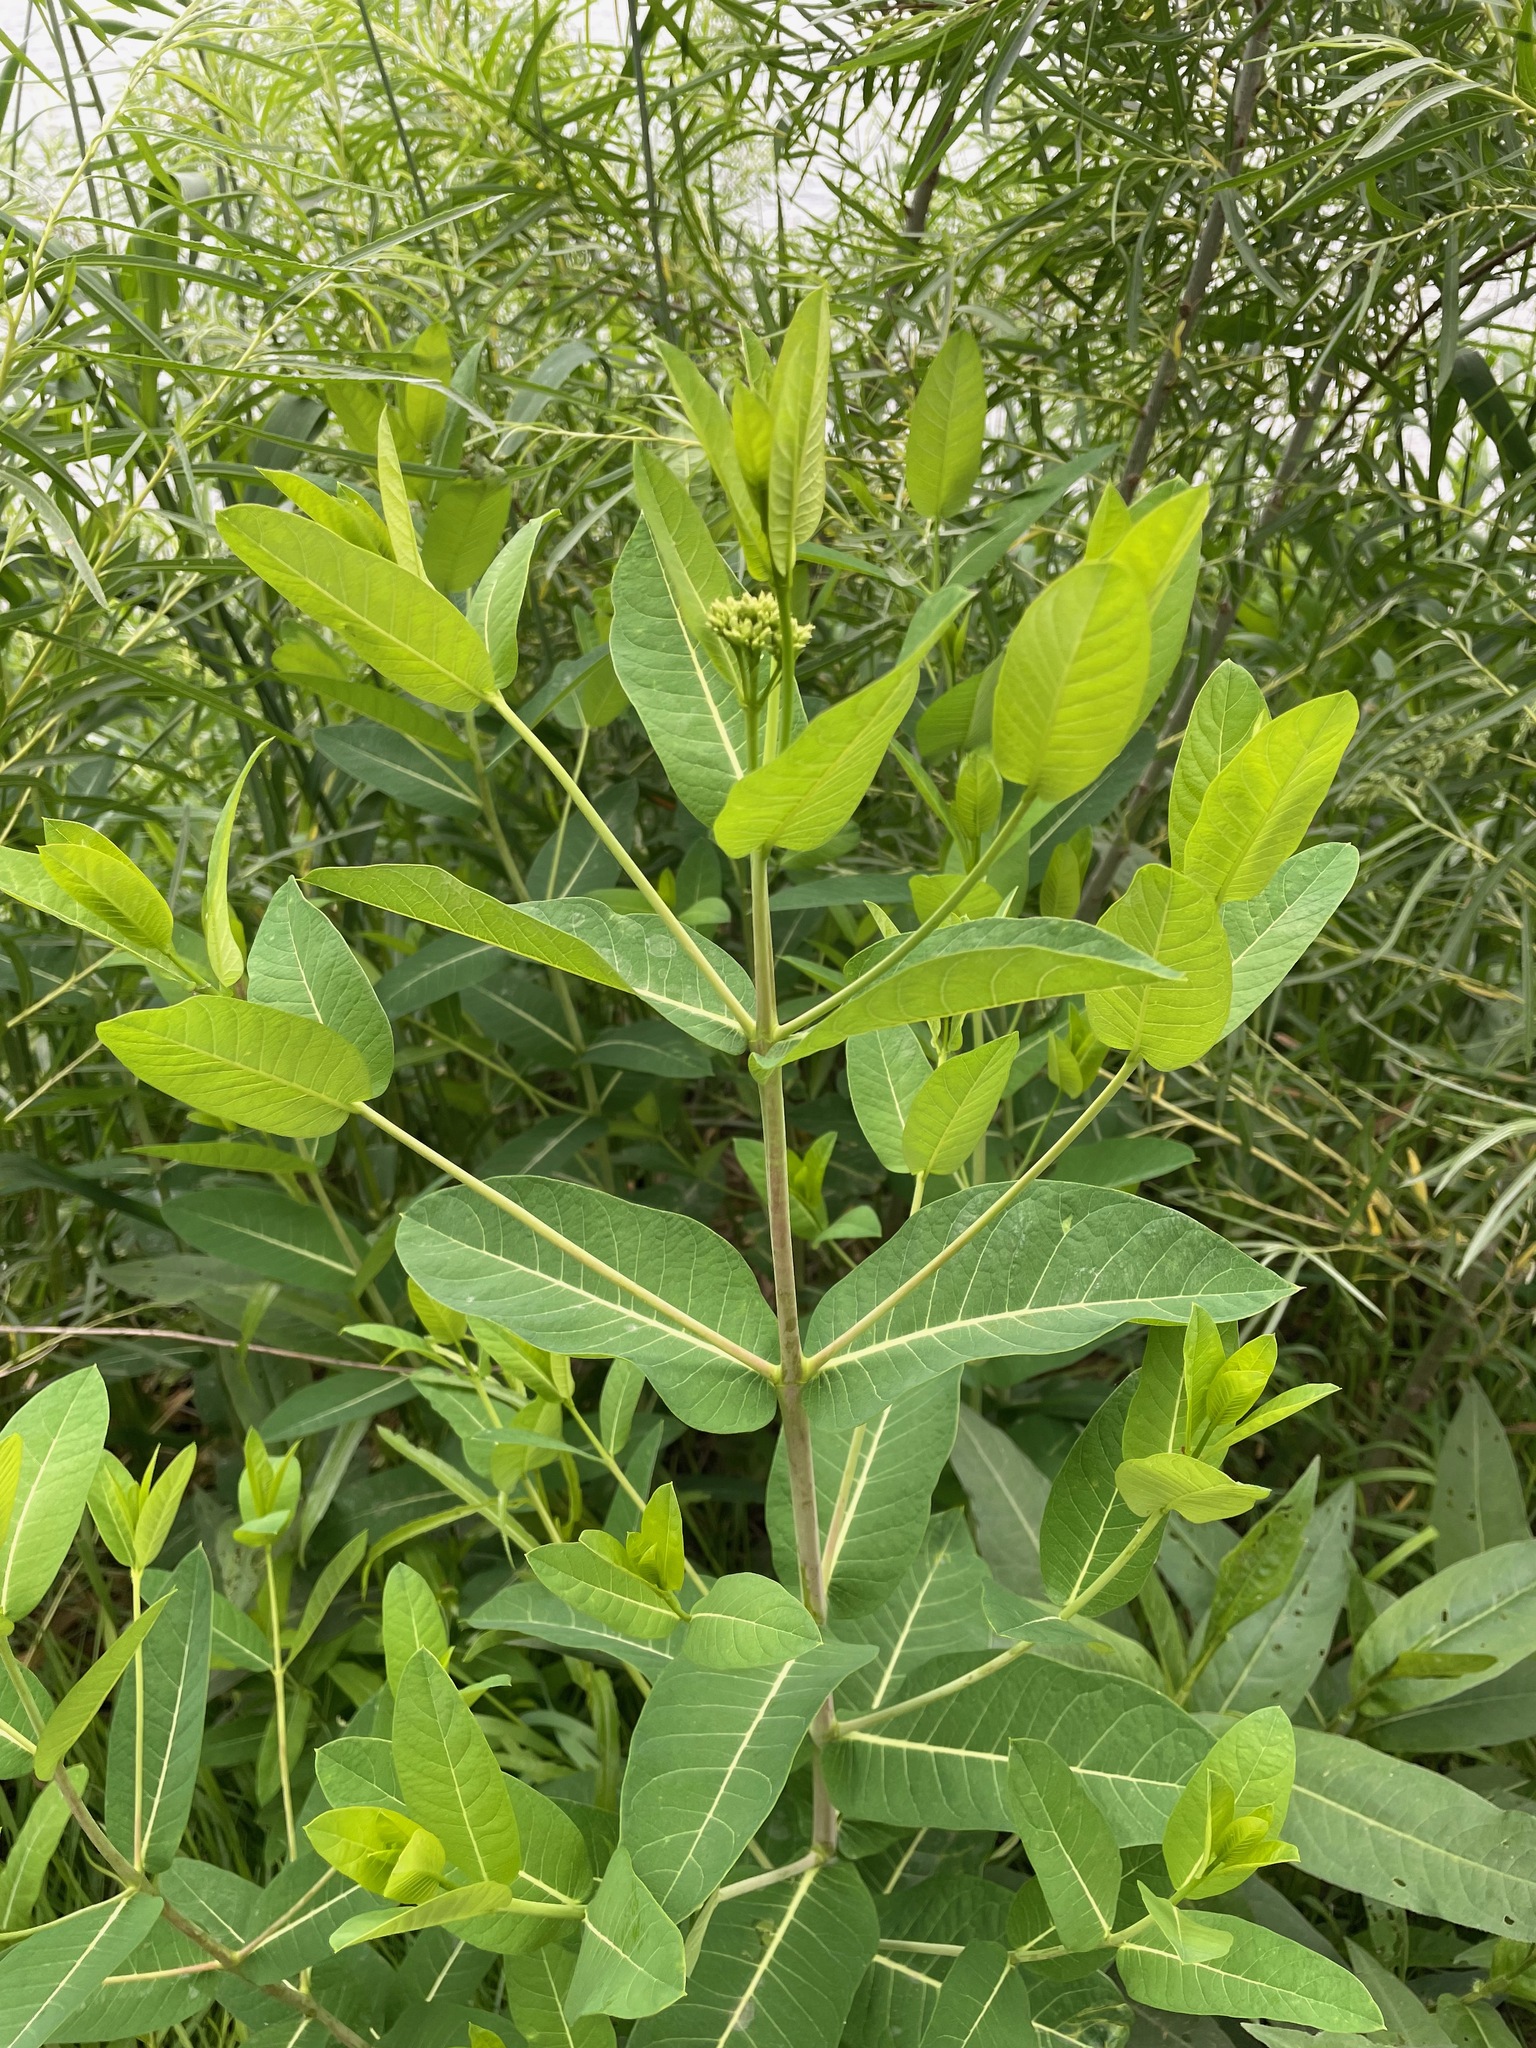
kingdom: Plantae
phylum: Tracheophyta
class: Magnoliopsida
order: Gentianales
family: Apocynaceae
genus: Apocynum
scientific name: Apocynum cannabinum
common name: Hemp dogbane
